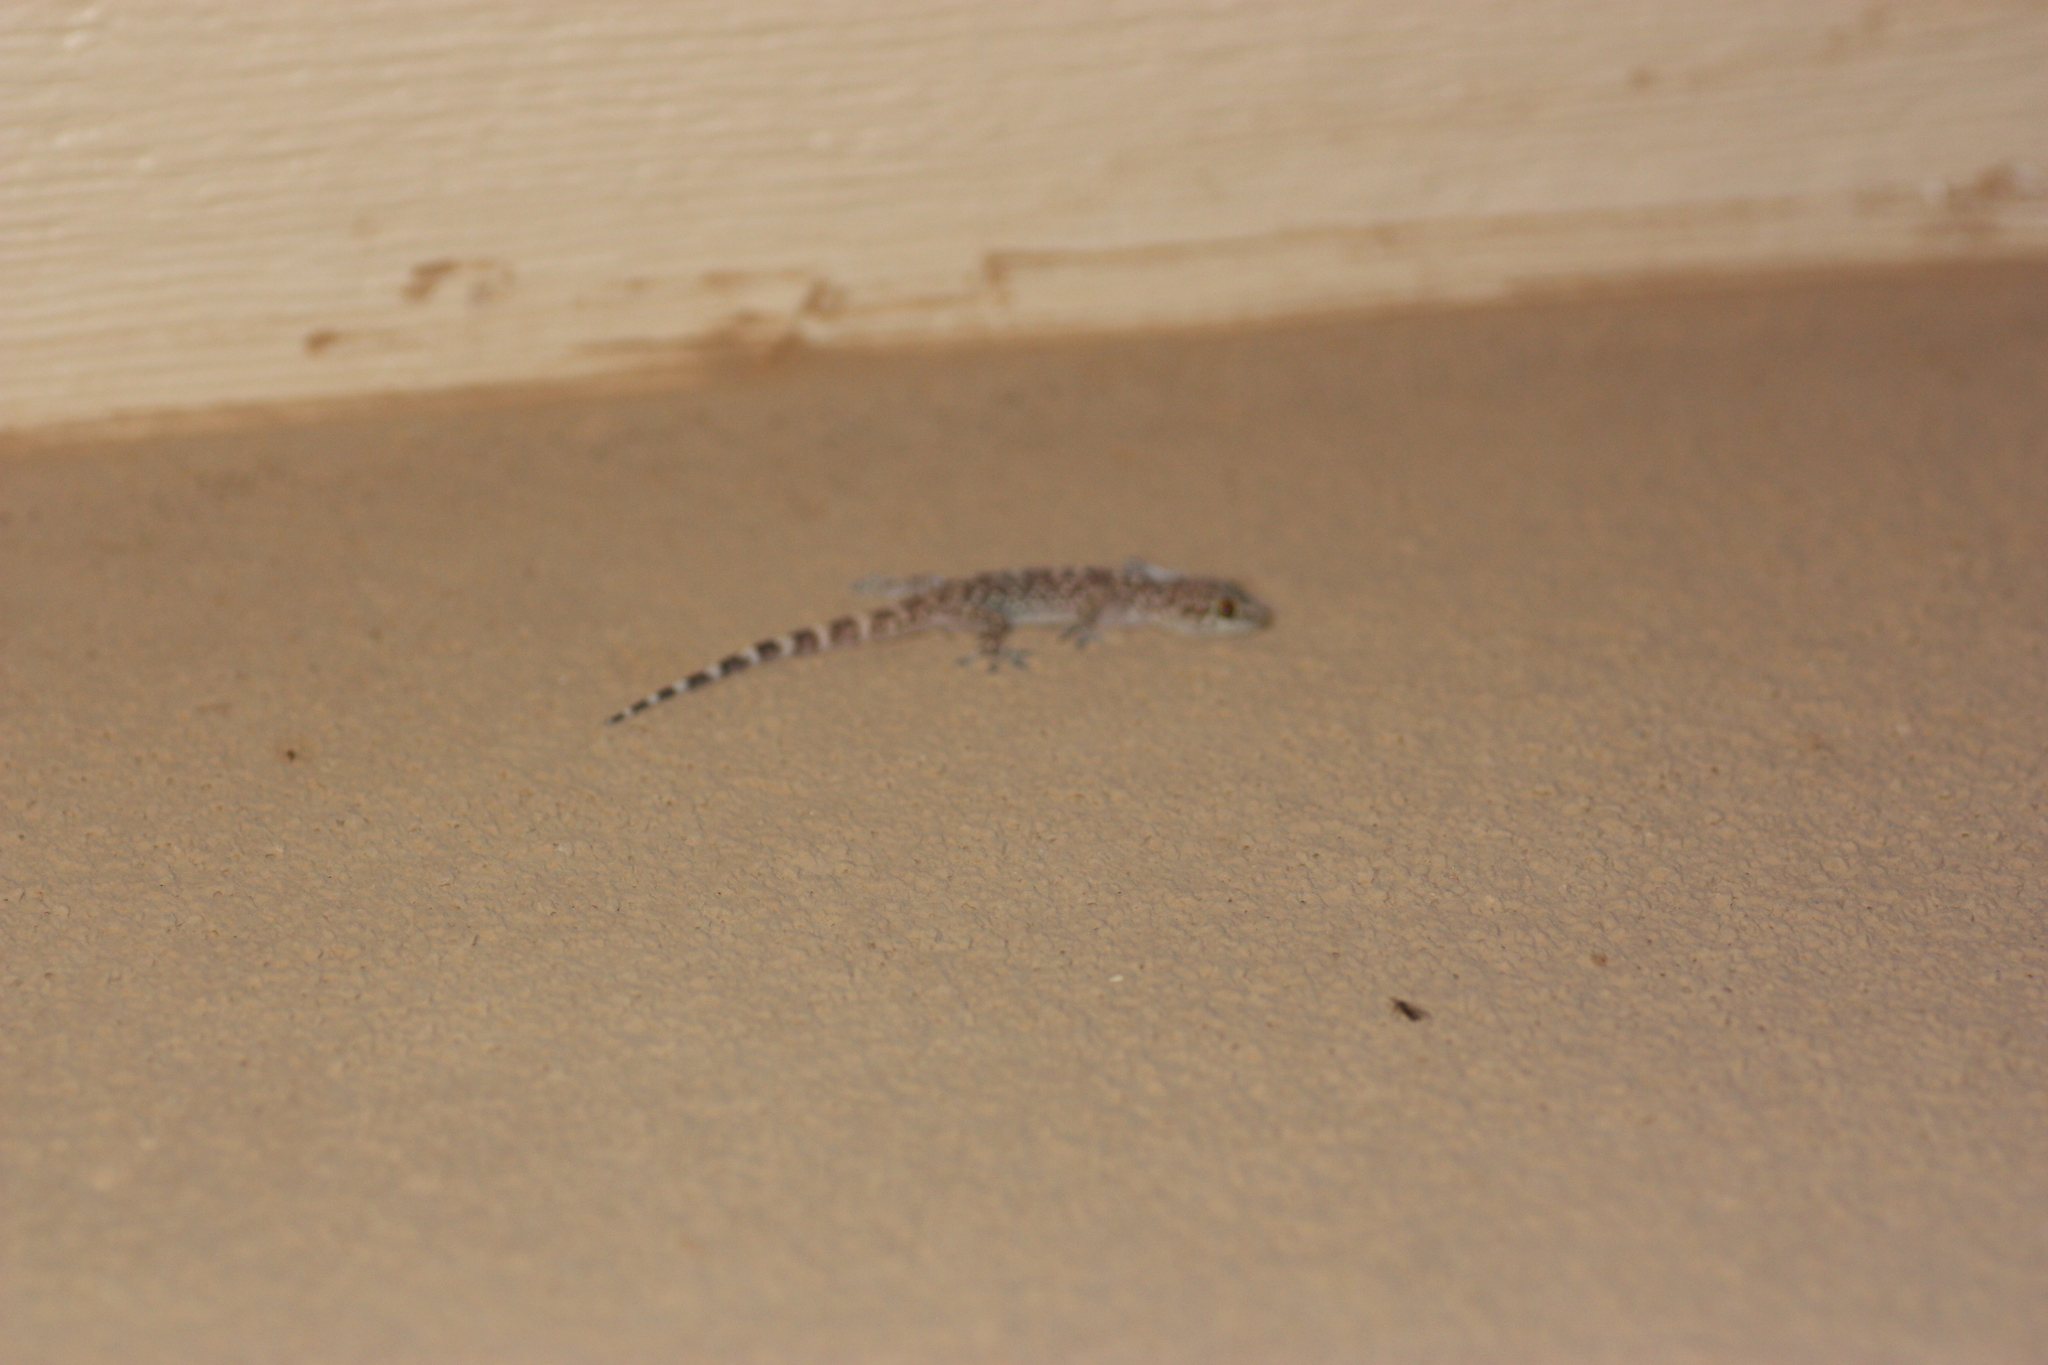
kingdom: Animalia
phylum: Chordata
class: Squamata
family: Gekkonidae
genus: Hemidactylus
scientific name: Hemidactylus turcicus
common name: Turkish gecko
